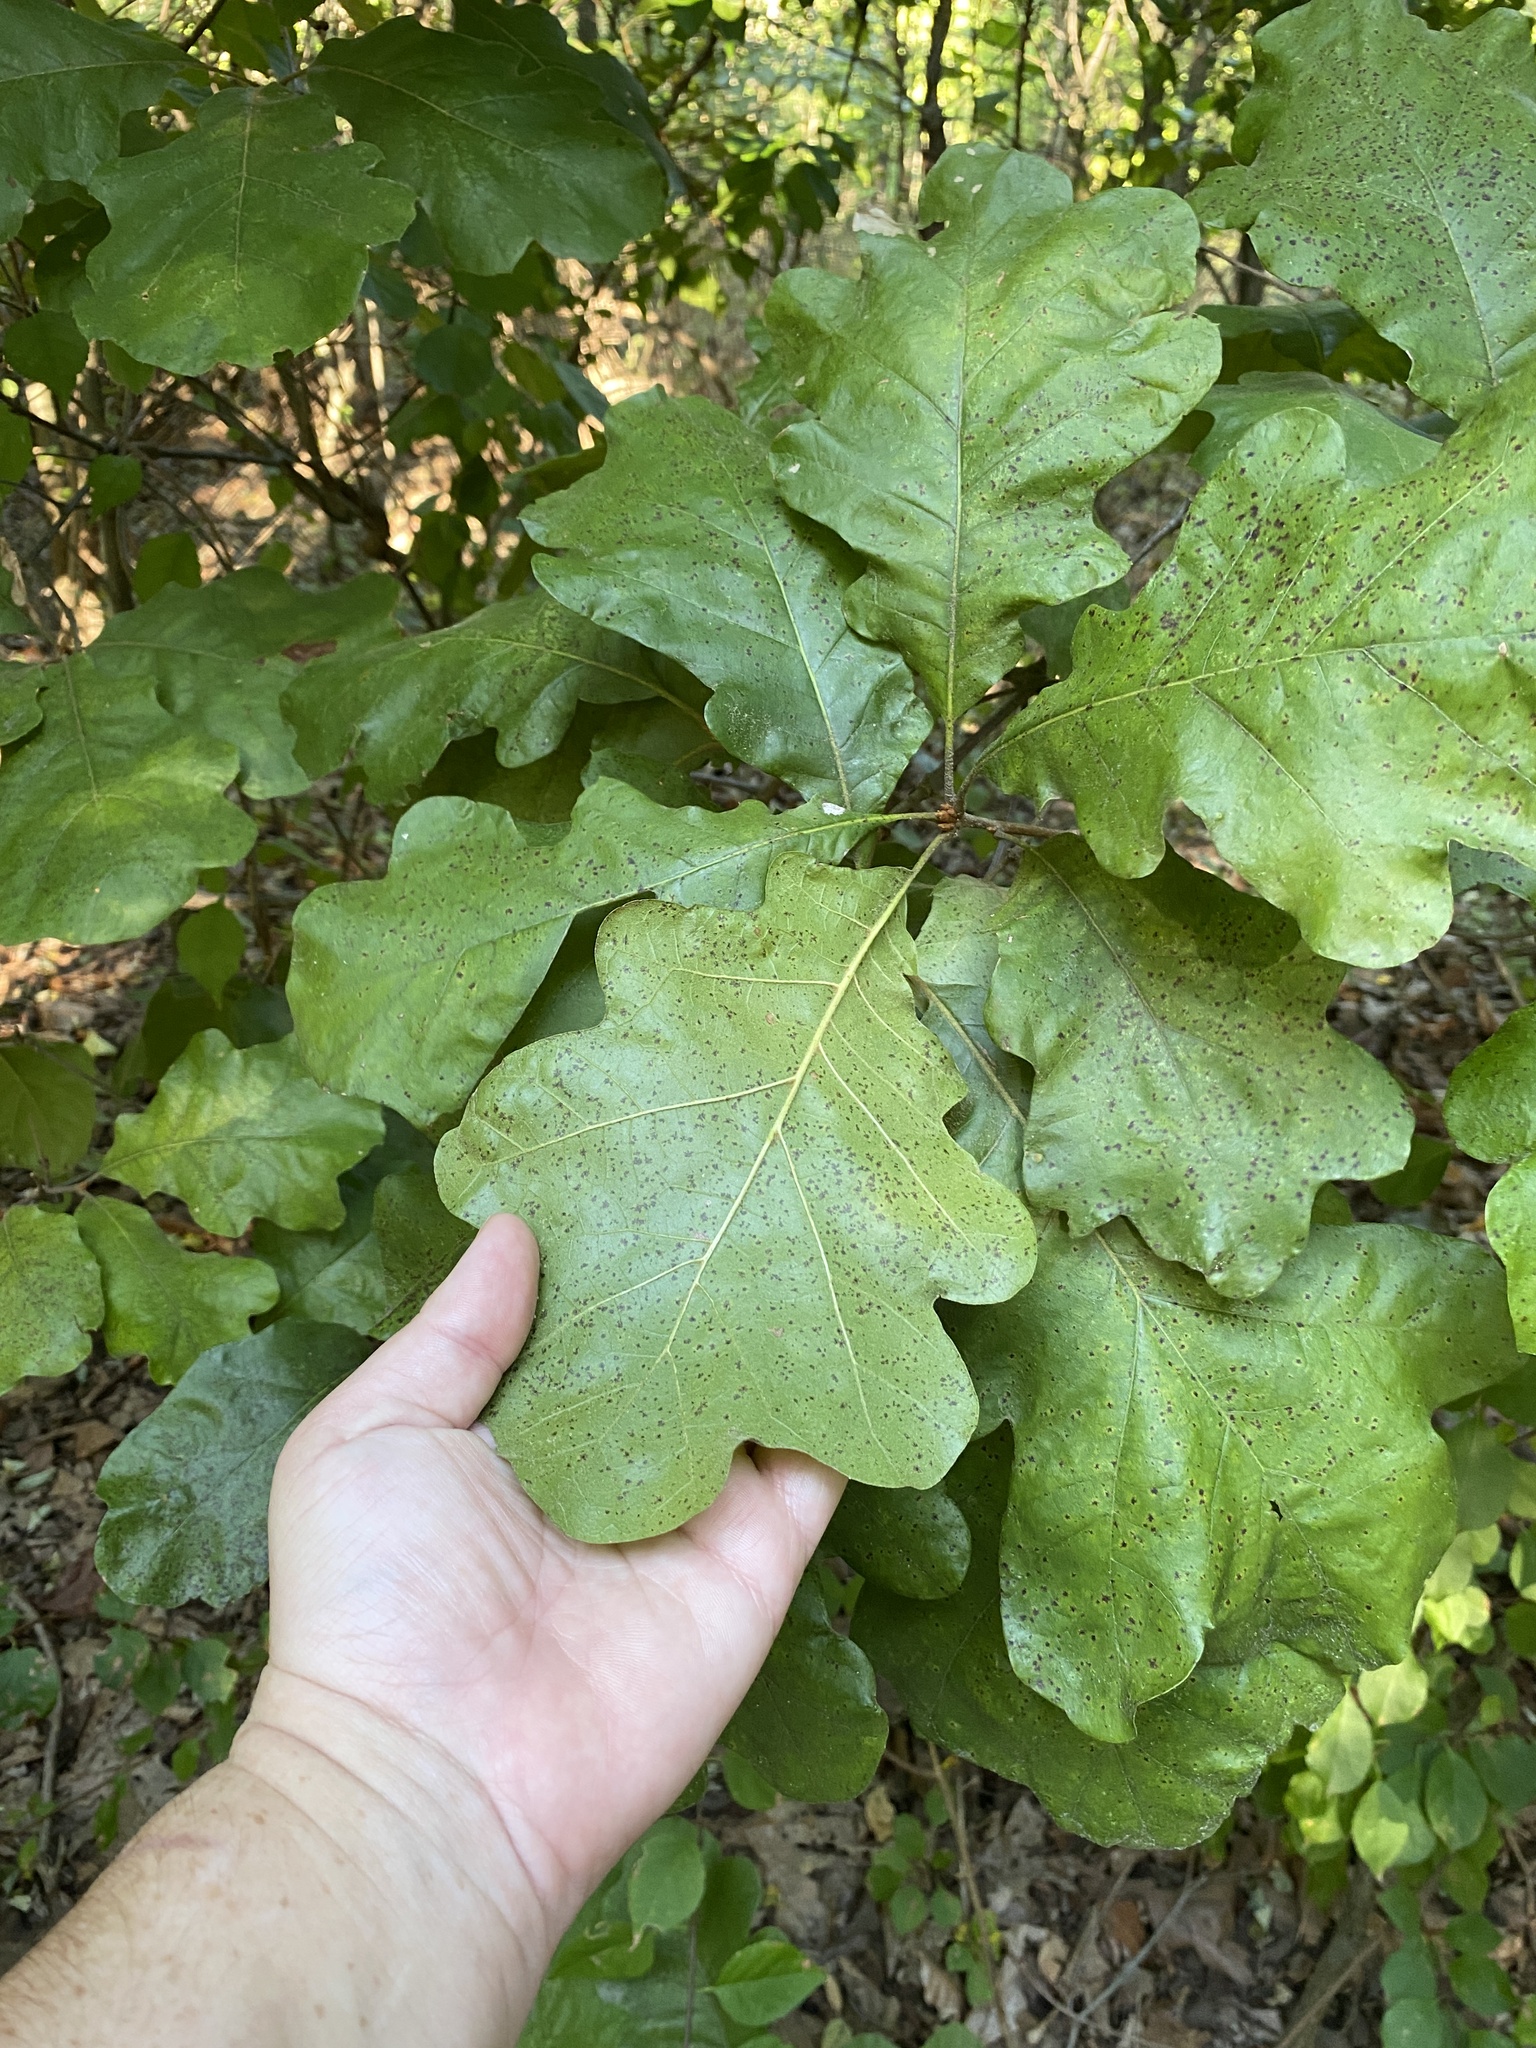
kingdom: Plantae
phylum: Tracheophyta
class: Magnoliopsida
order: Fagales
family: Fagaceae
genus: Quercus
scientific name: Quercus marilandica
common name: Blackjack oak
